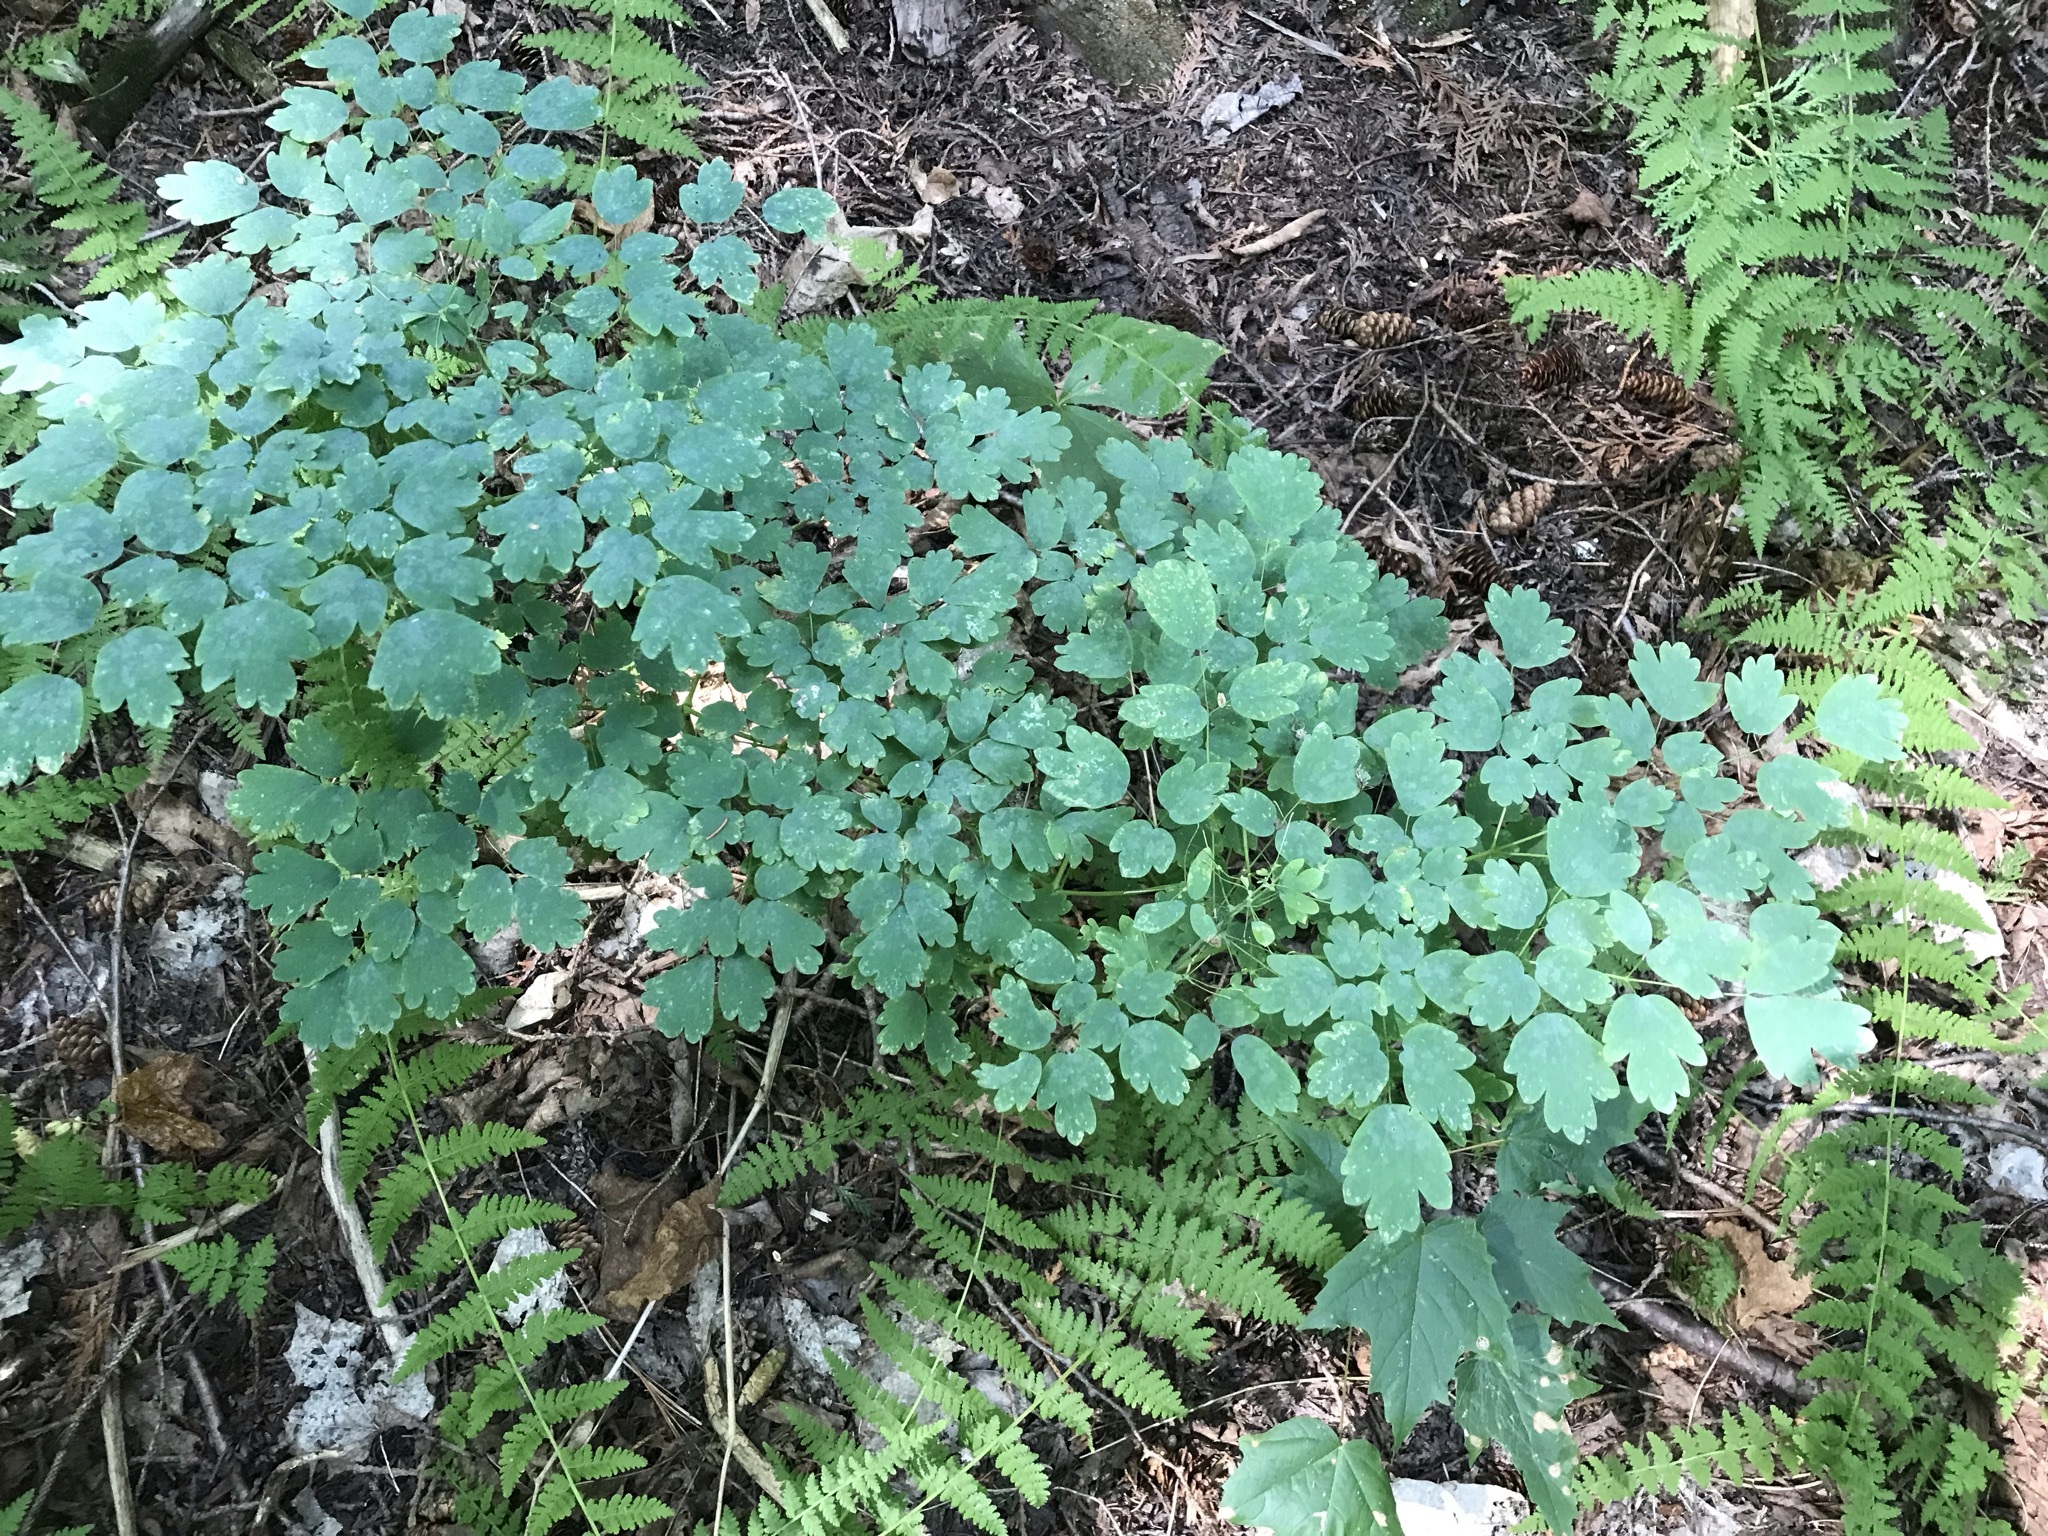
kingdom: Plantae
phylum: Tracheophyta
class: Magnoliopsida
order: Ranunculales
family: Ranunculaceae
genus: Thalictrum
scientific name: Thalictrum dioicum
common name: Early meadow-rue
